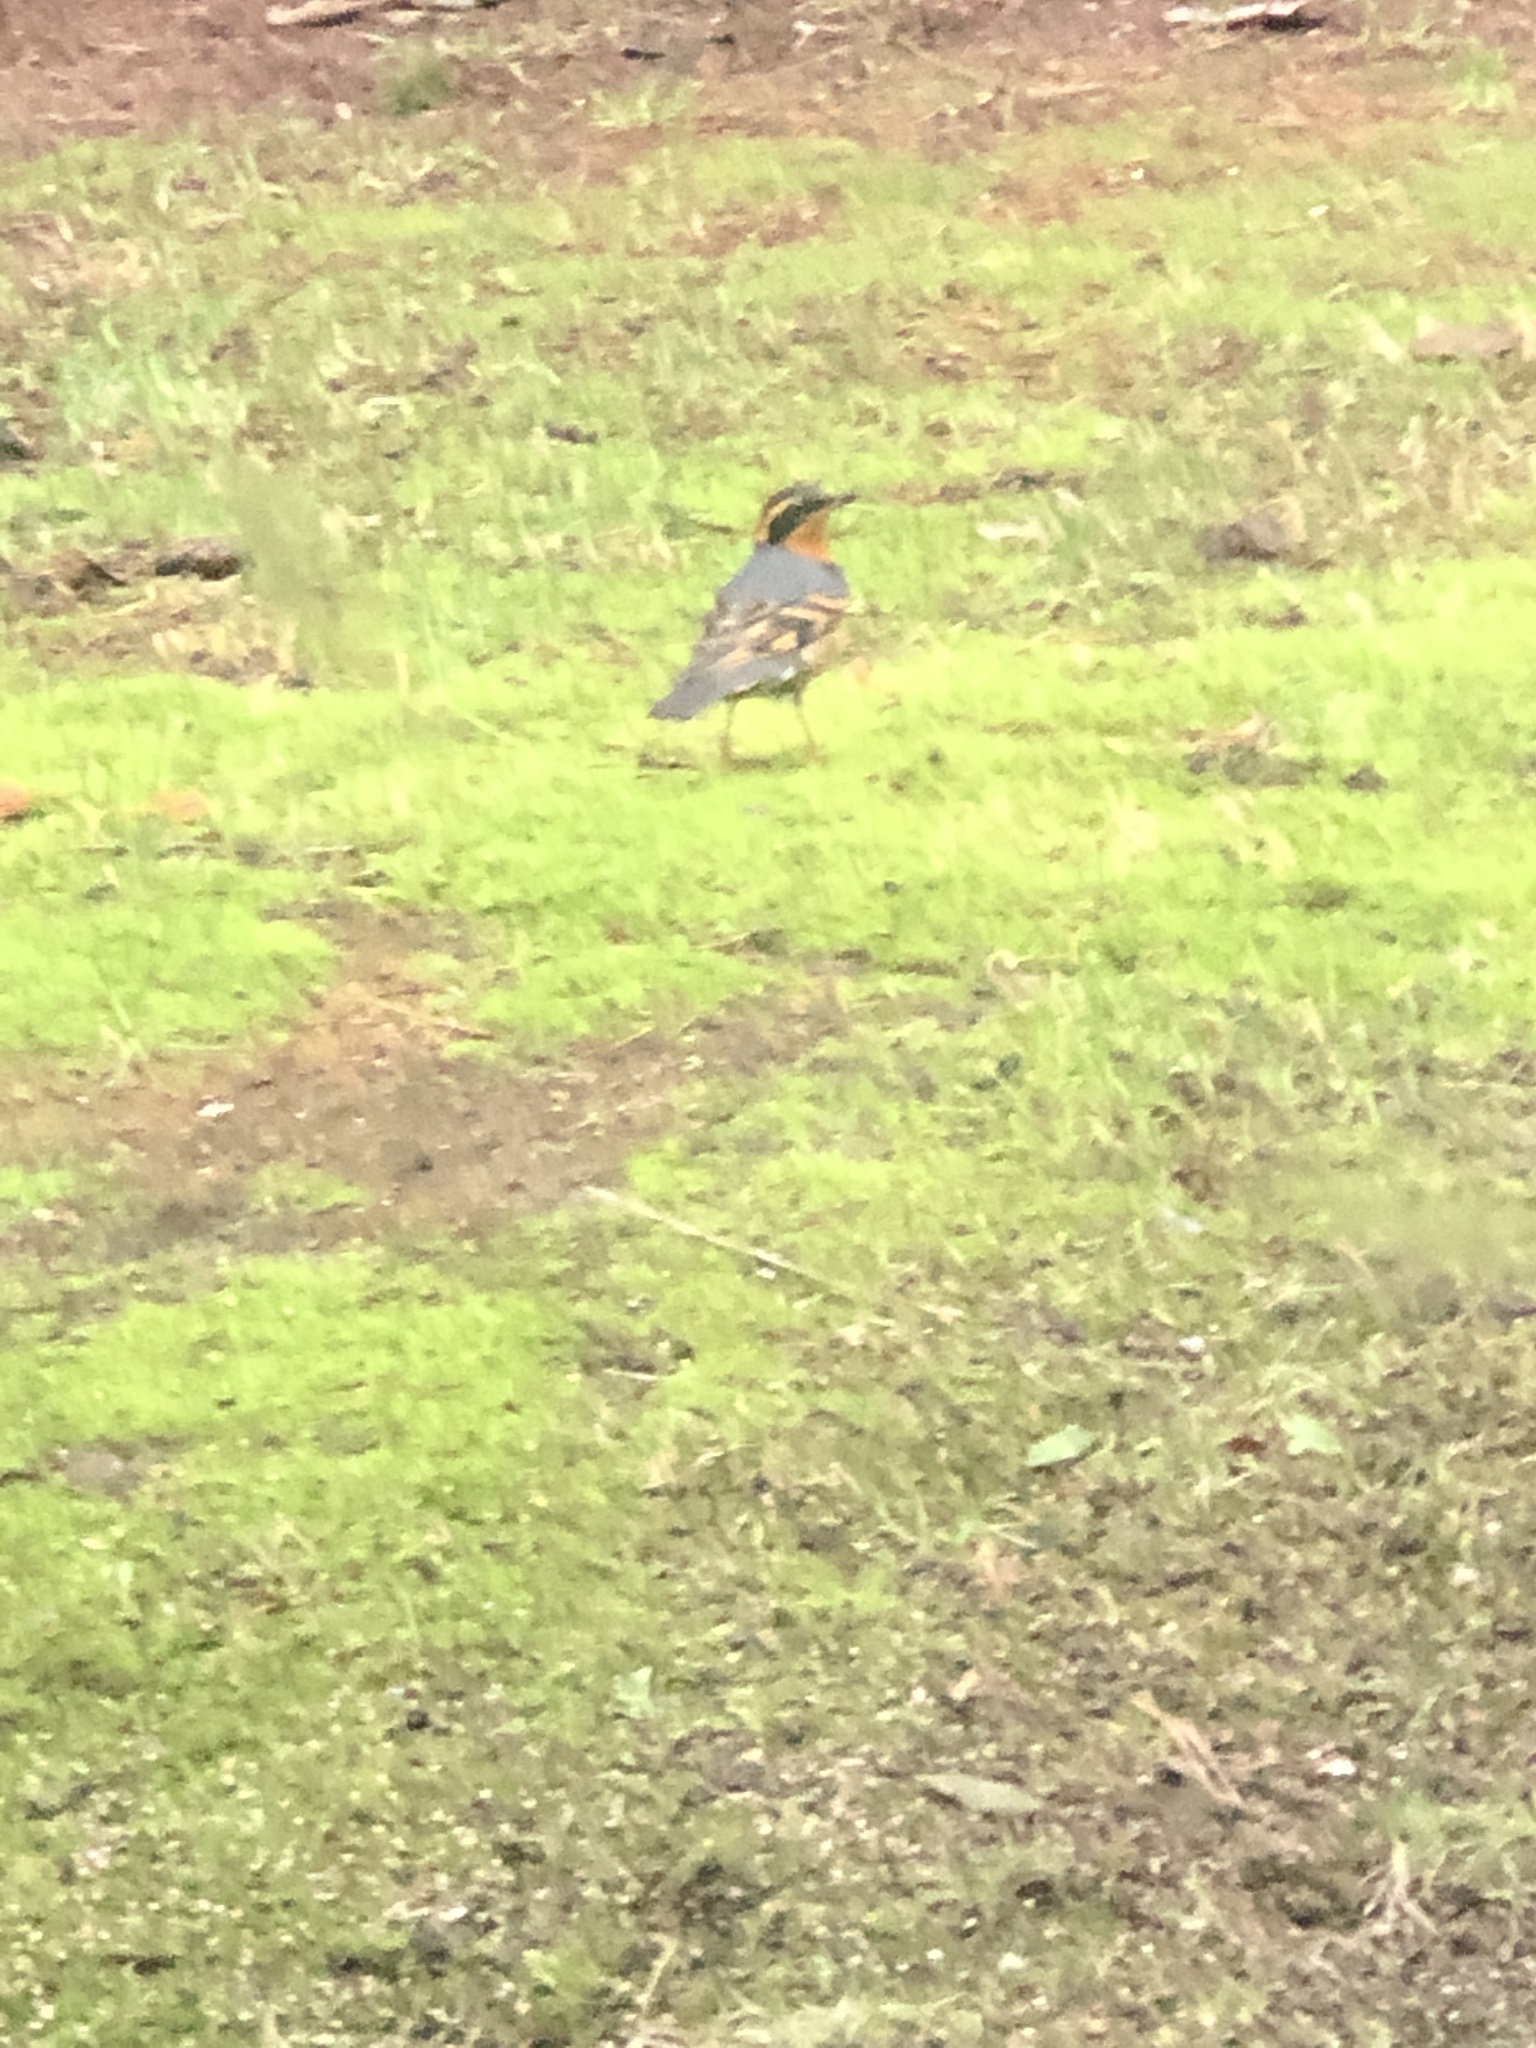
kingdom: Animalia
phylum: Chordata
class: Aves
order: Passeriformes
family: Turdidae
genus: Ixoreus
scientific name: Ixoreus naevius
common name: Varied thrush
